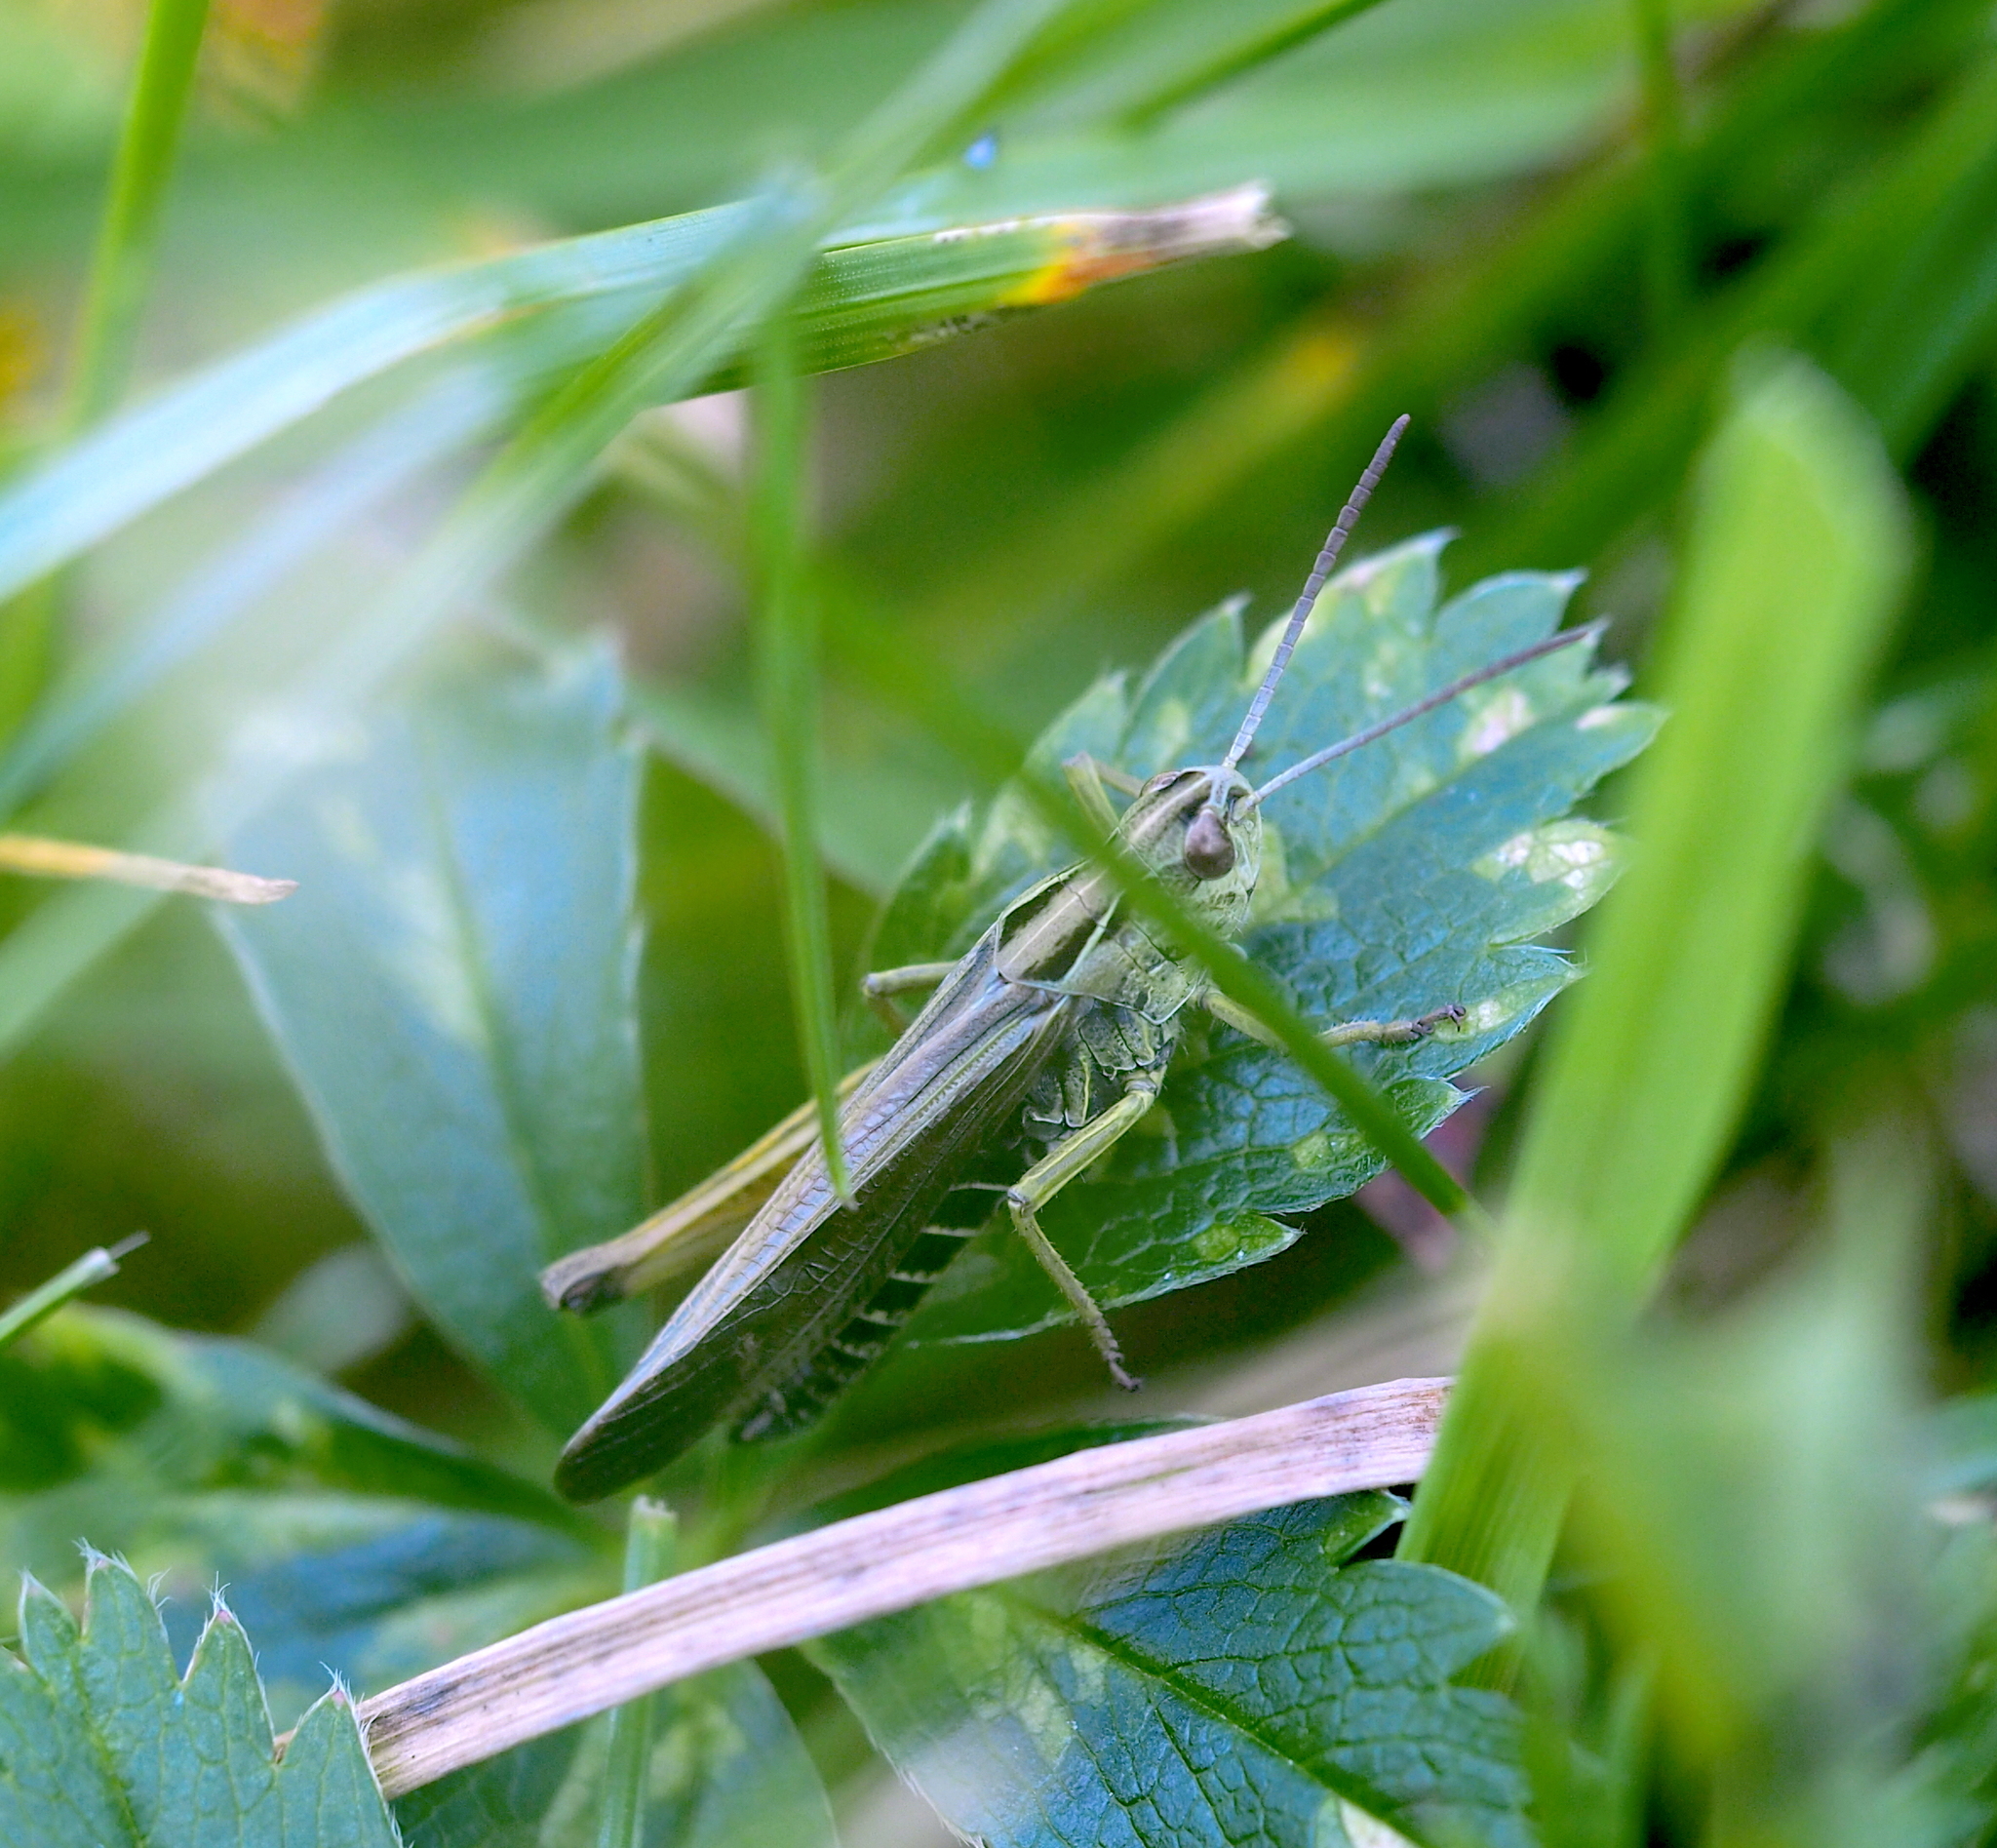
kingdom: Animalia
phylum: Arthropoda
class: Insecta
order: Orthoptera
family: Acrididae
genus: Omocestus
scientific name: Omocestus viridulus
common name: Common green grasshopper
